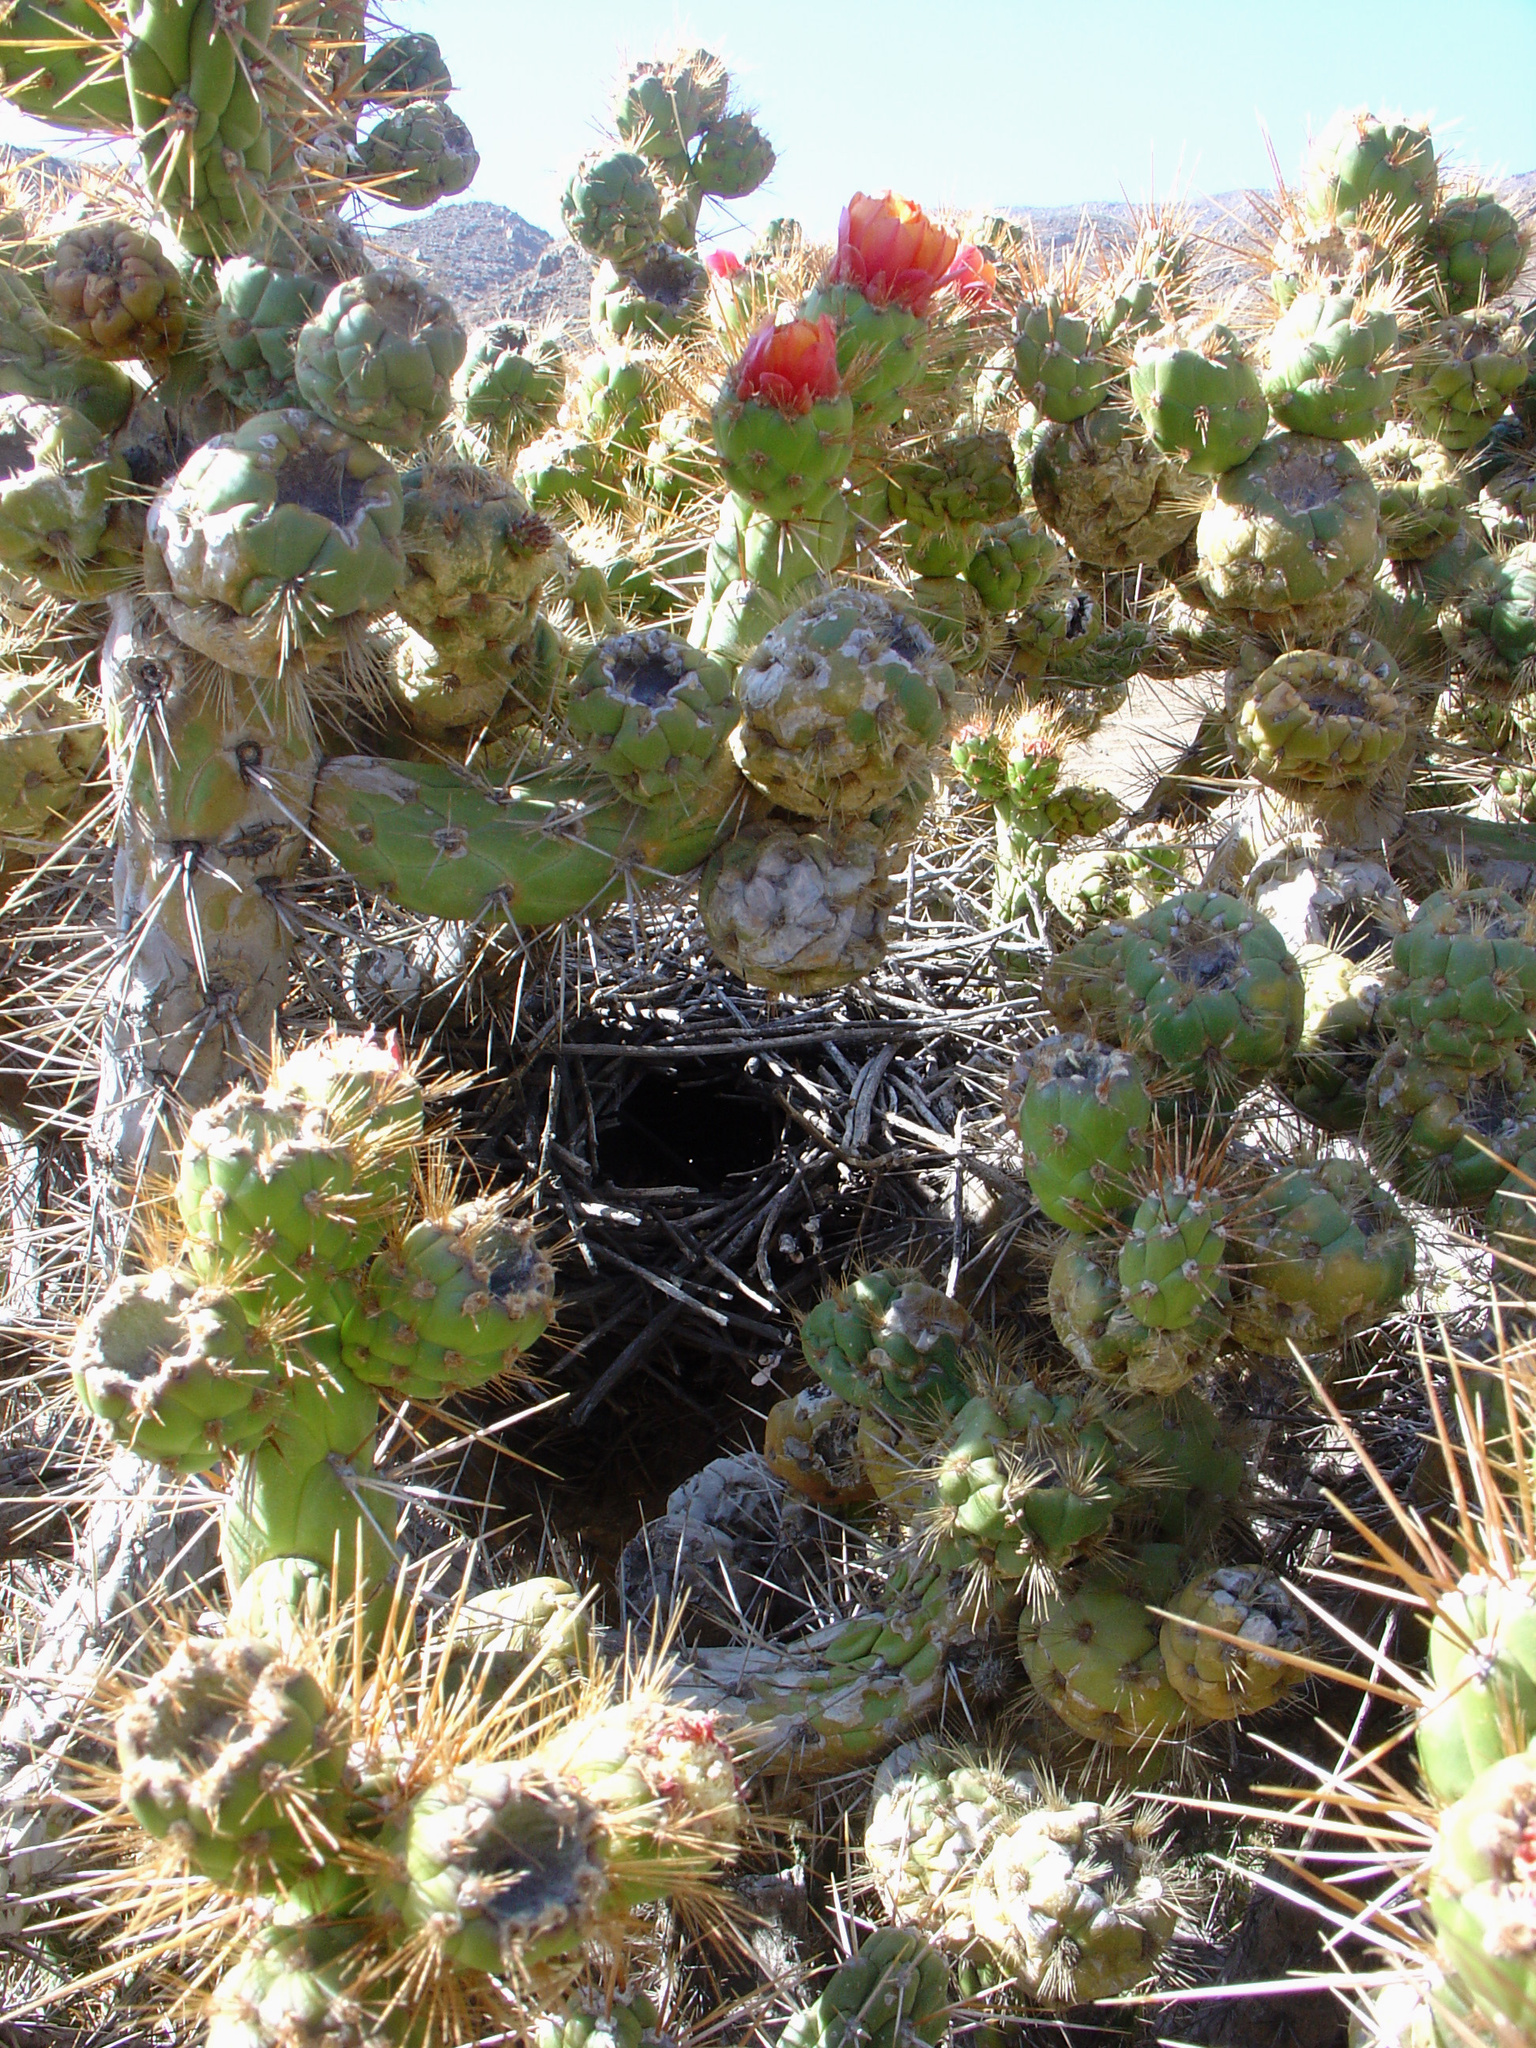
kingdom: Plantae
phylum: Tracheophyta
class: Magnoliopsida
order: Caryophyllales
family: Cactaceae
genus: Austrocylindropuntia
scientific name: Austrocylindropuntia subulata
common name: Eve's needle cactus
